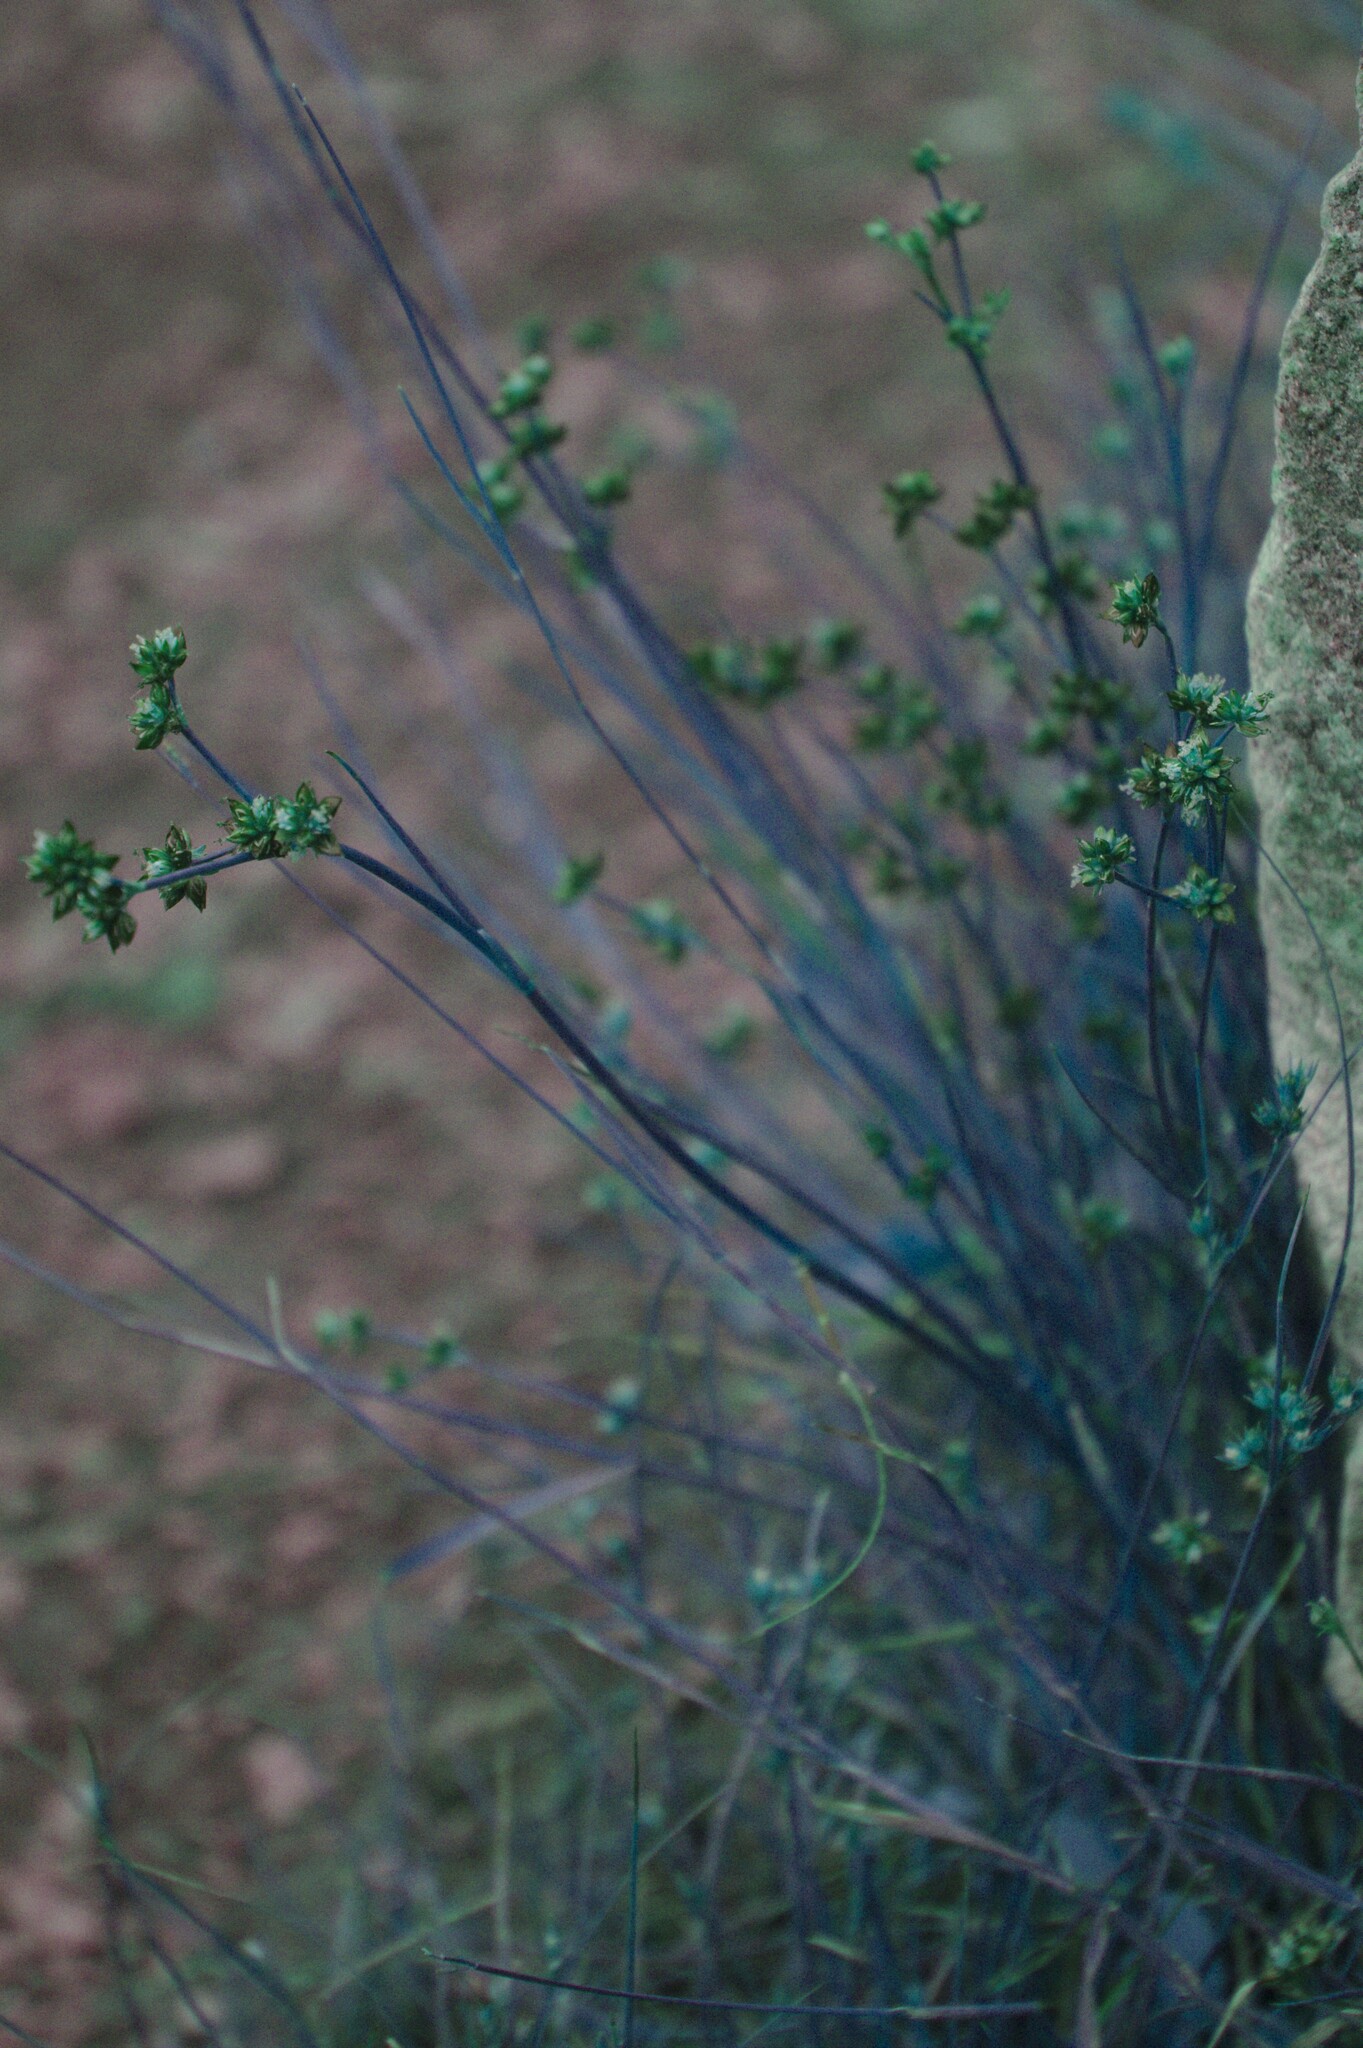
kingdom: Plantae
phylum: Tracheophyta
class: Liliopsida
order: Poales
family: Juncaceae
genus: Juncus
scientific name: Juncus articulatus
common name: Jointed rush
